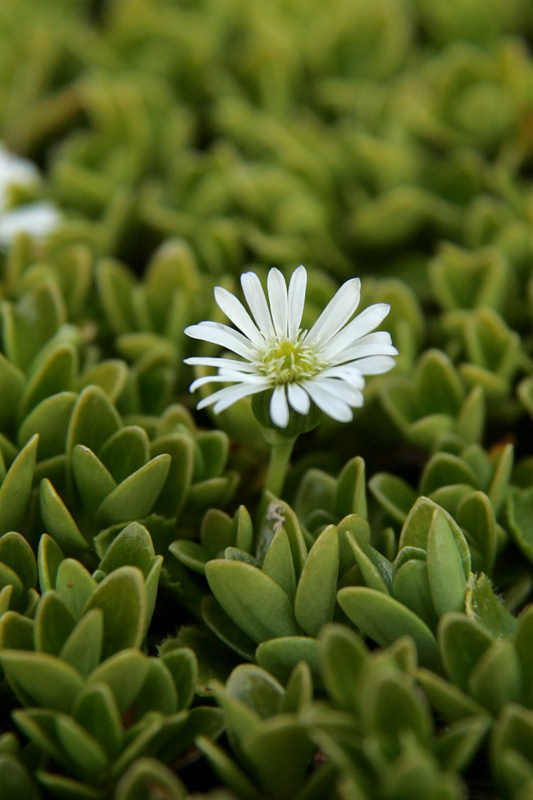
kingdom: Plantae
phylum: Tracheophyta
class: Magnoliopsida
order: Asterales
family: Asteraceae
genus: Lagenophora
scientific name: Lagenophora petiolata
